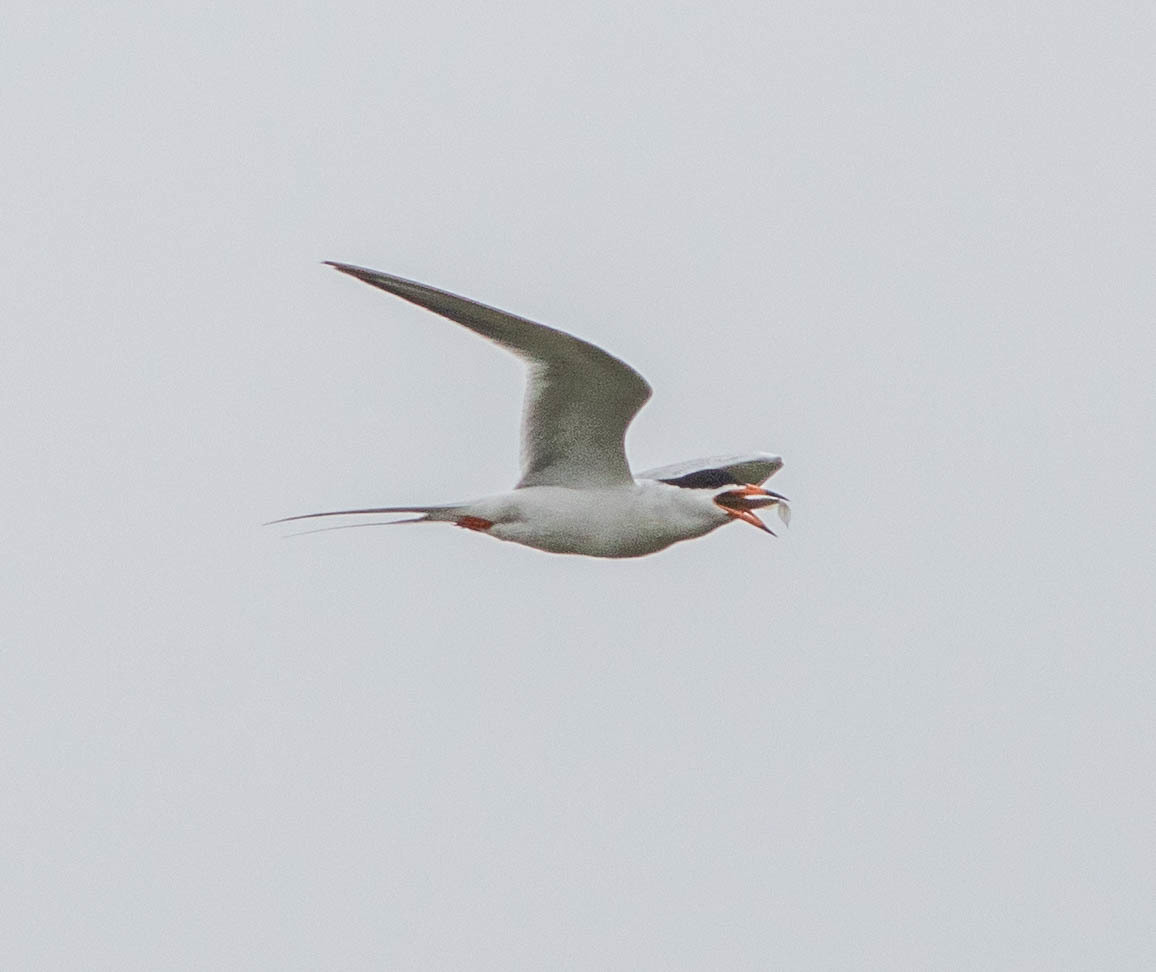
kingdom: Animalia
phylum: Chordata
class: Aves
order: Charadriiformes
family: Laridae
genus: Sterna
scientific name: Sterna forsteri
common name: Forster's tern
